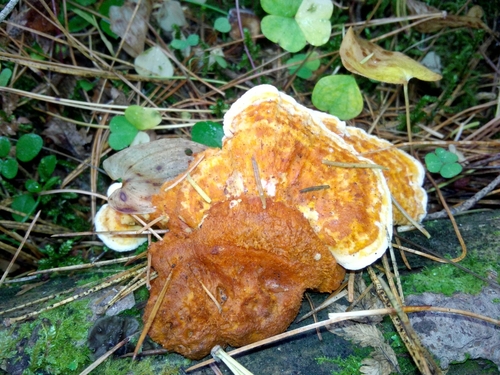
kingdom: Fungi
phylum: Basidiomycota
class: Agaricomycetes
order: Polyporales
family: Pycnoporellaceae
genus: Pycnoporellus
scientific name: Pycnoporellus fulgens
